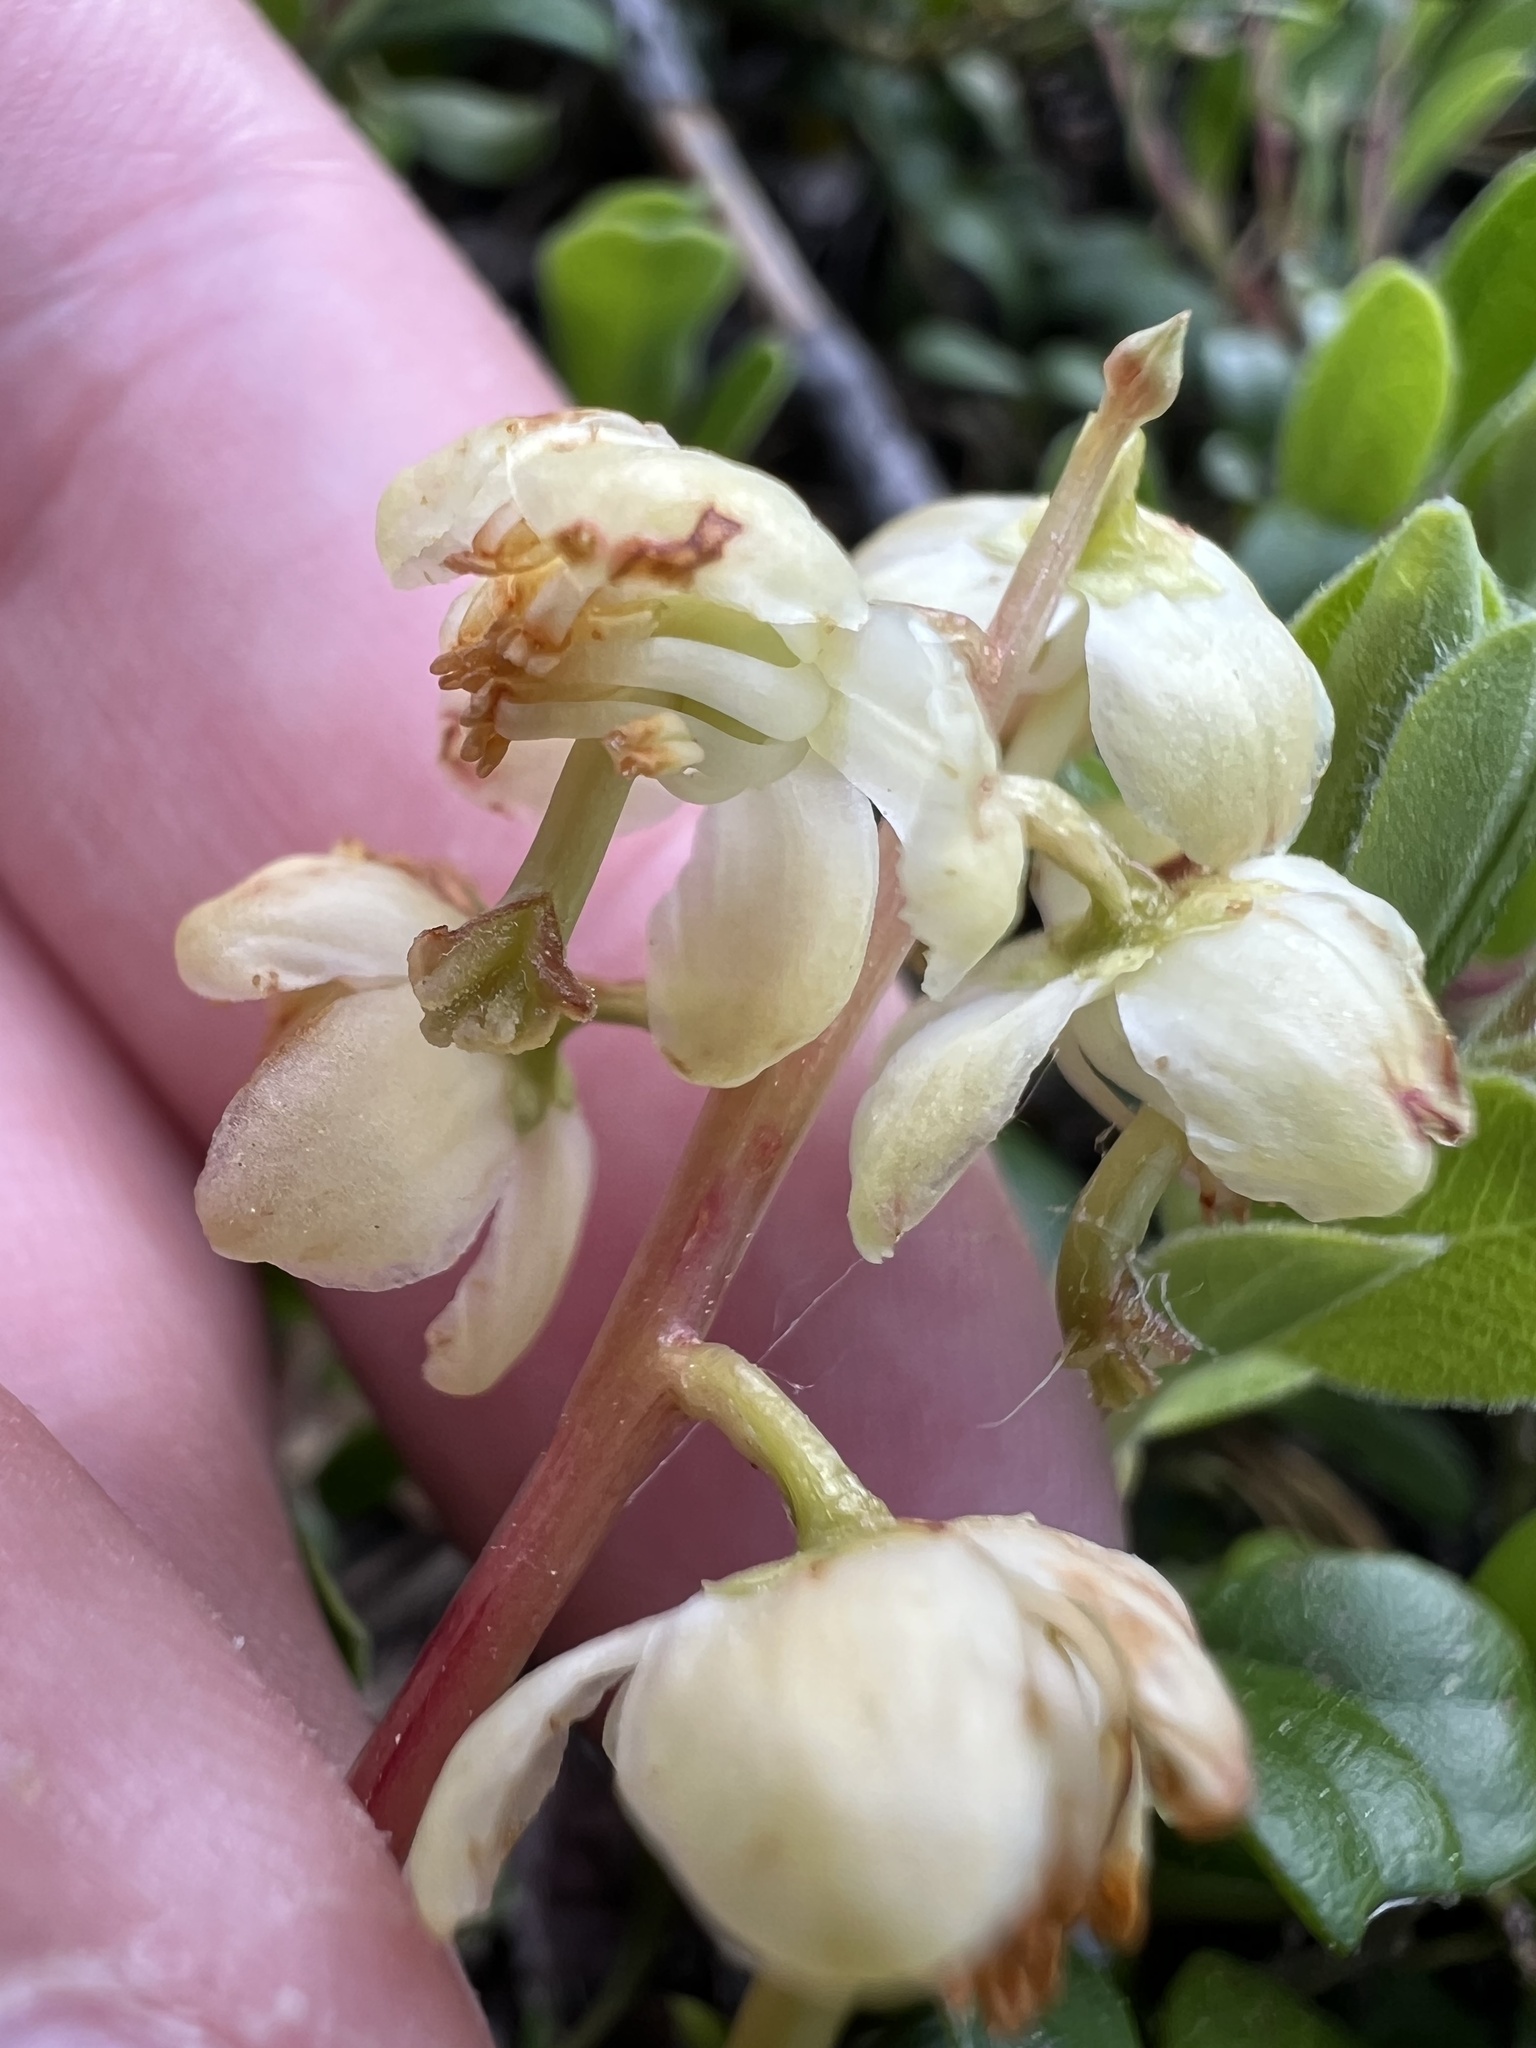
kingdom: Plantae
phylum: Tracheophyta
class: Magnoliopsida
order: Ericales
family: Ericaceae
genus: Pyrola
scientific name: Pyrola chlorantha
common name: Green wintergreen
